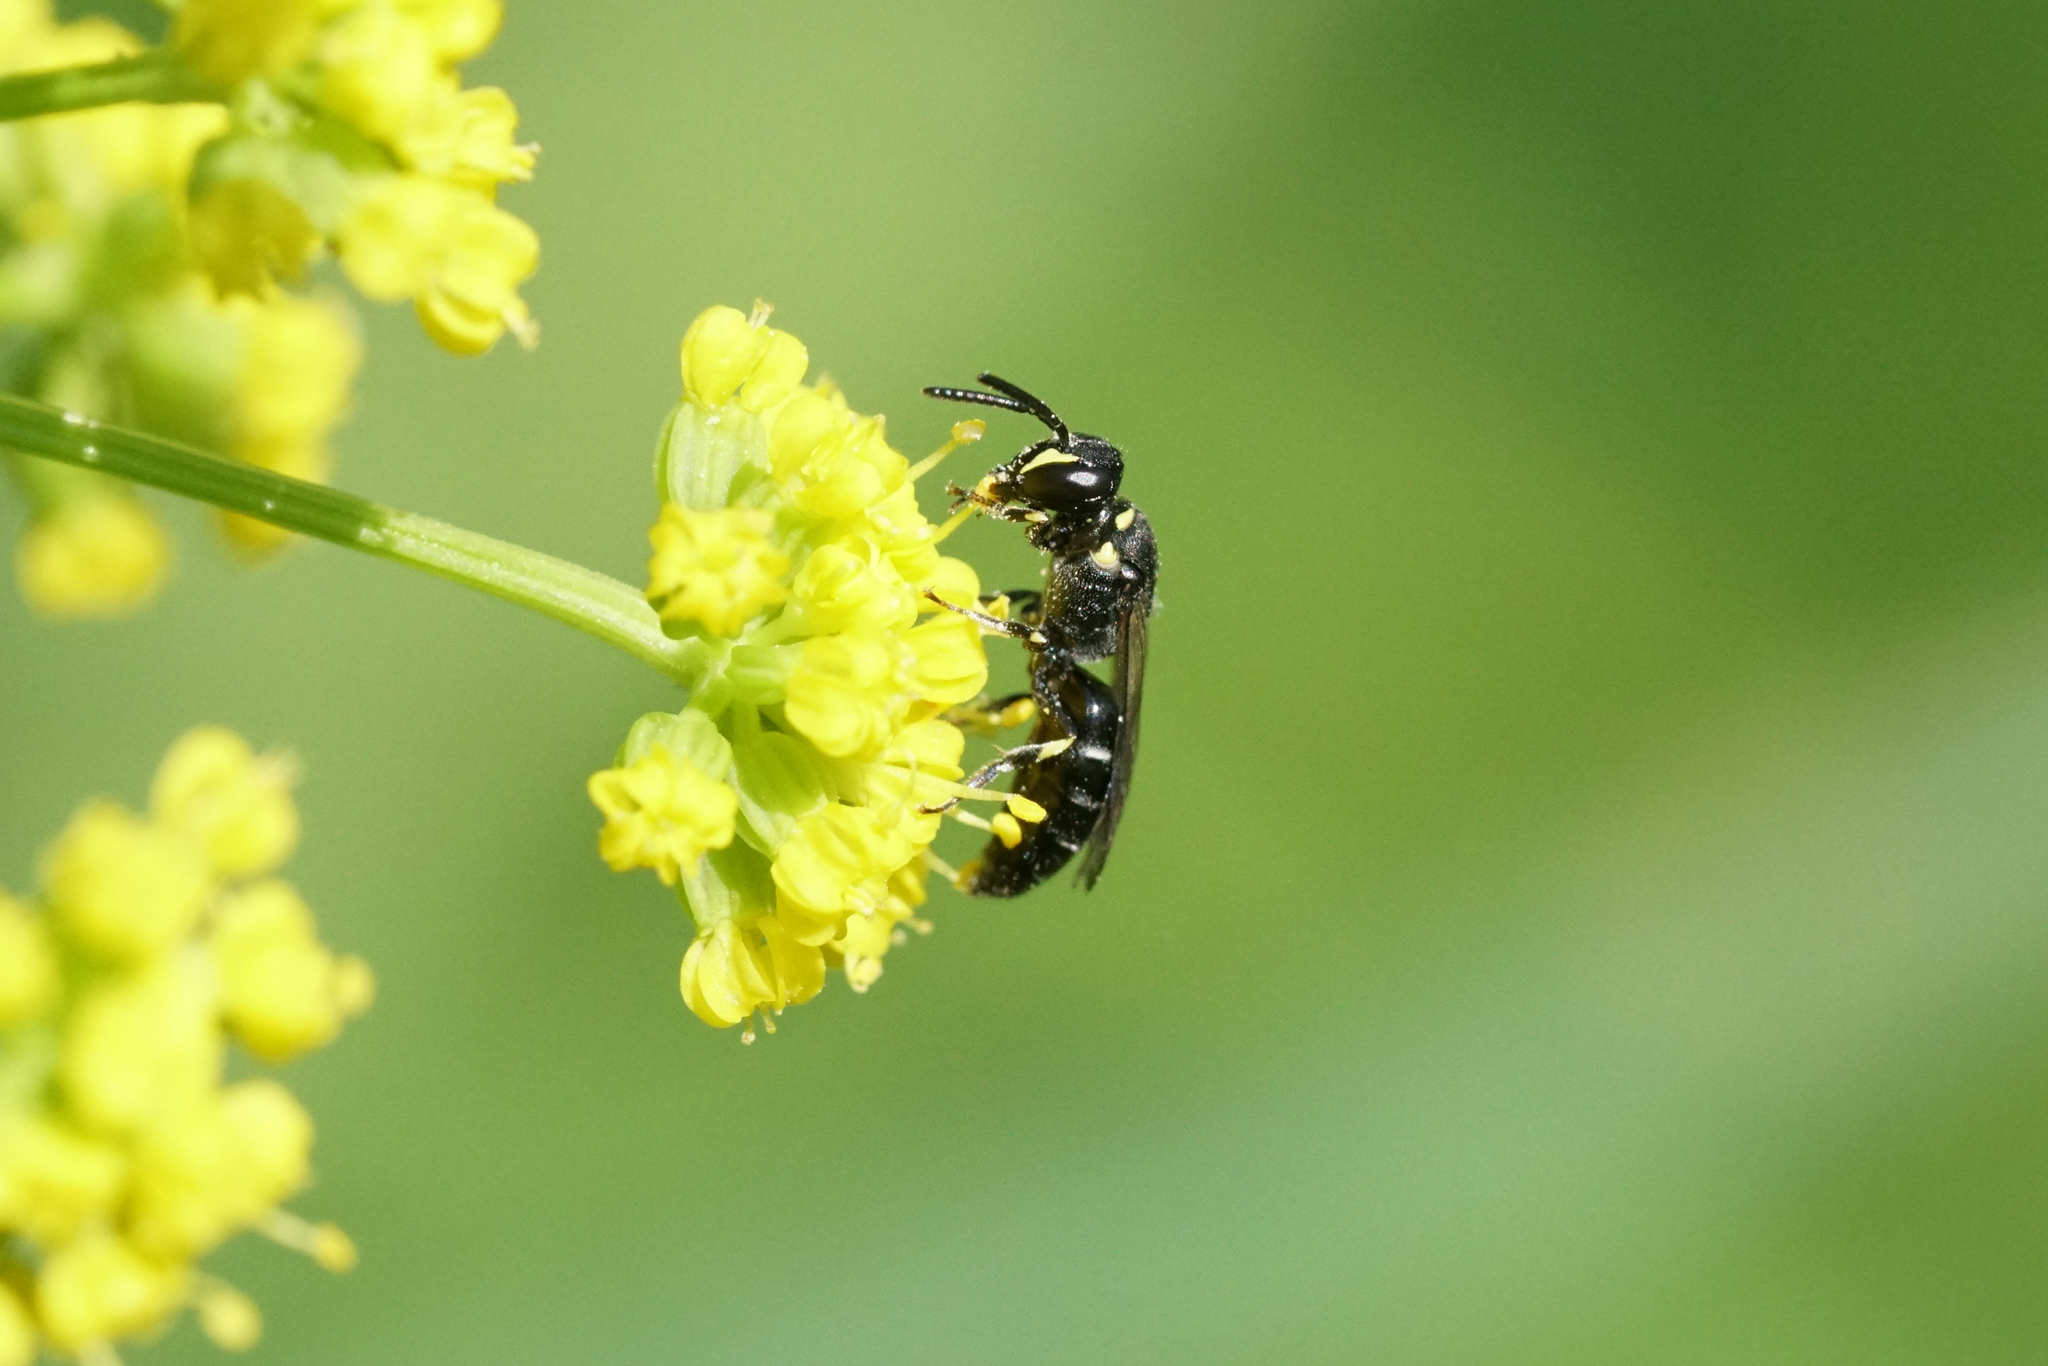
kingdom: Animalia
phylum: Arthropoda
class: Insecta
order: Hymenoptera
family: Colletidae
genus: Hylaeus
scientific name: Hylaeus modestus
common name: Yellow-faced bee
